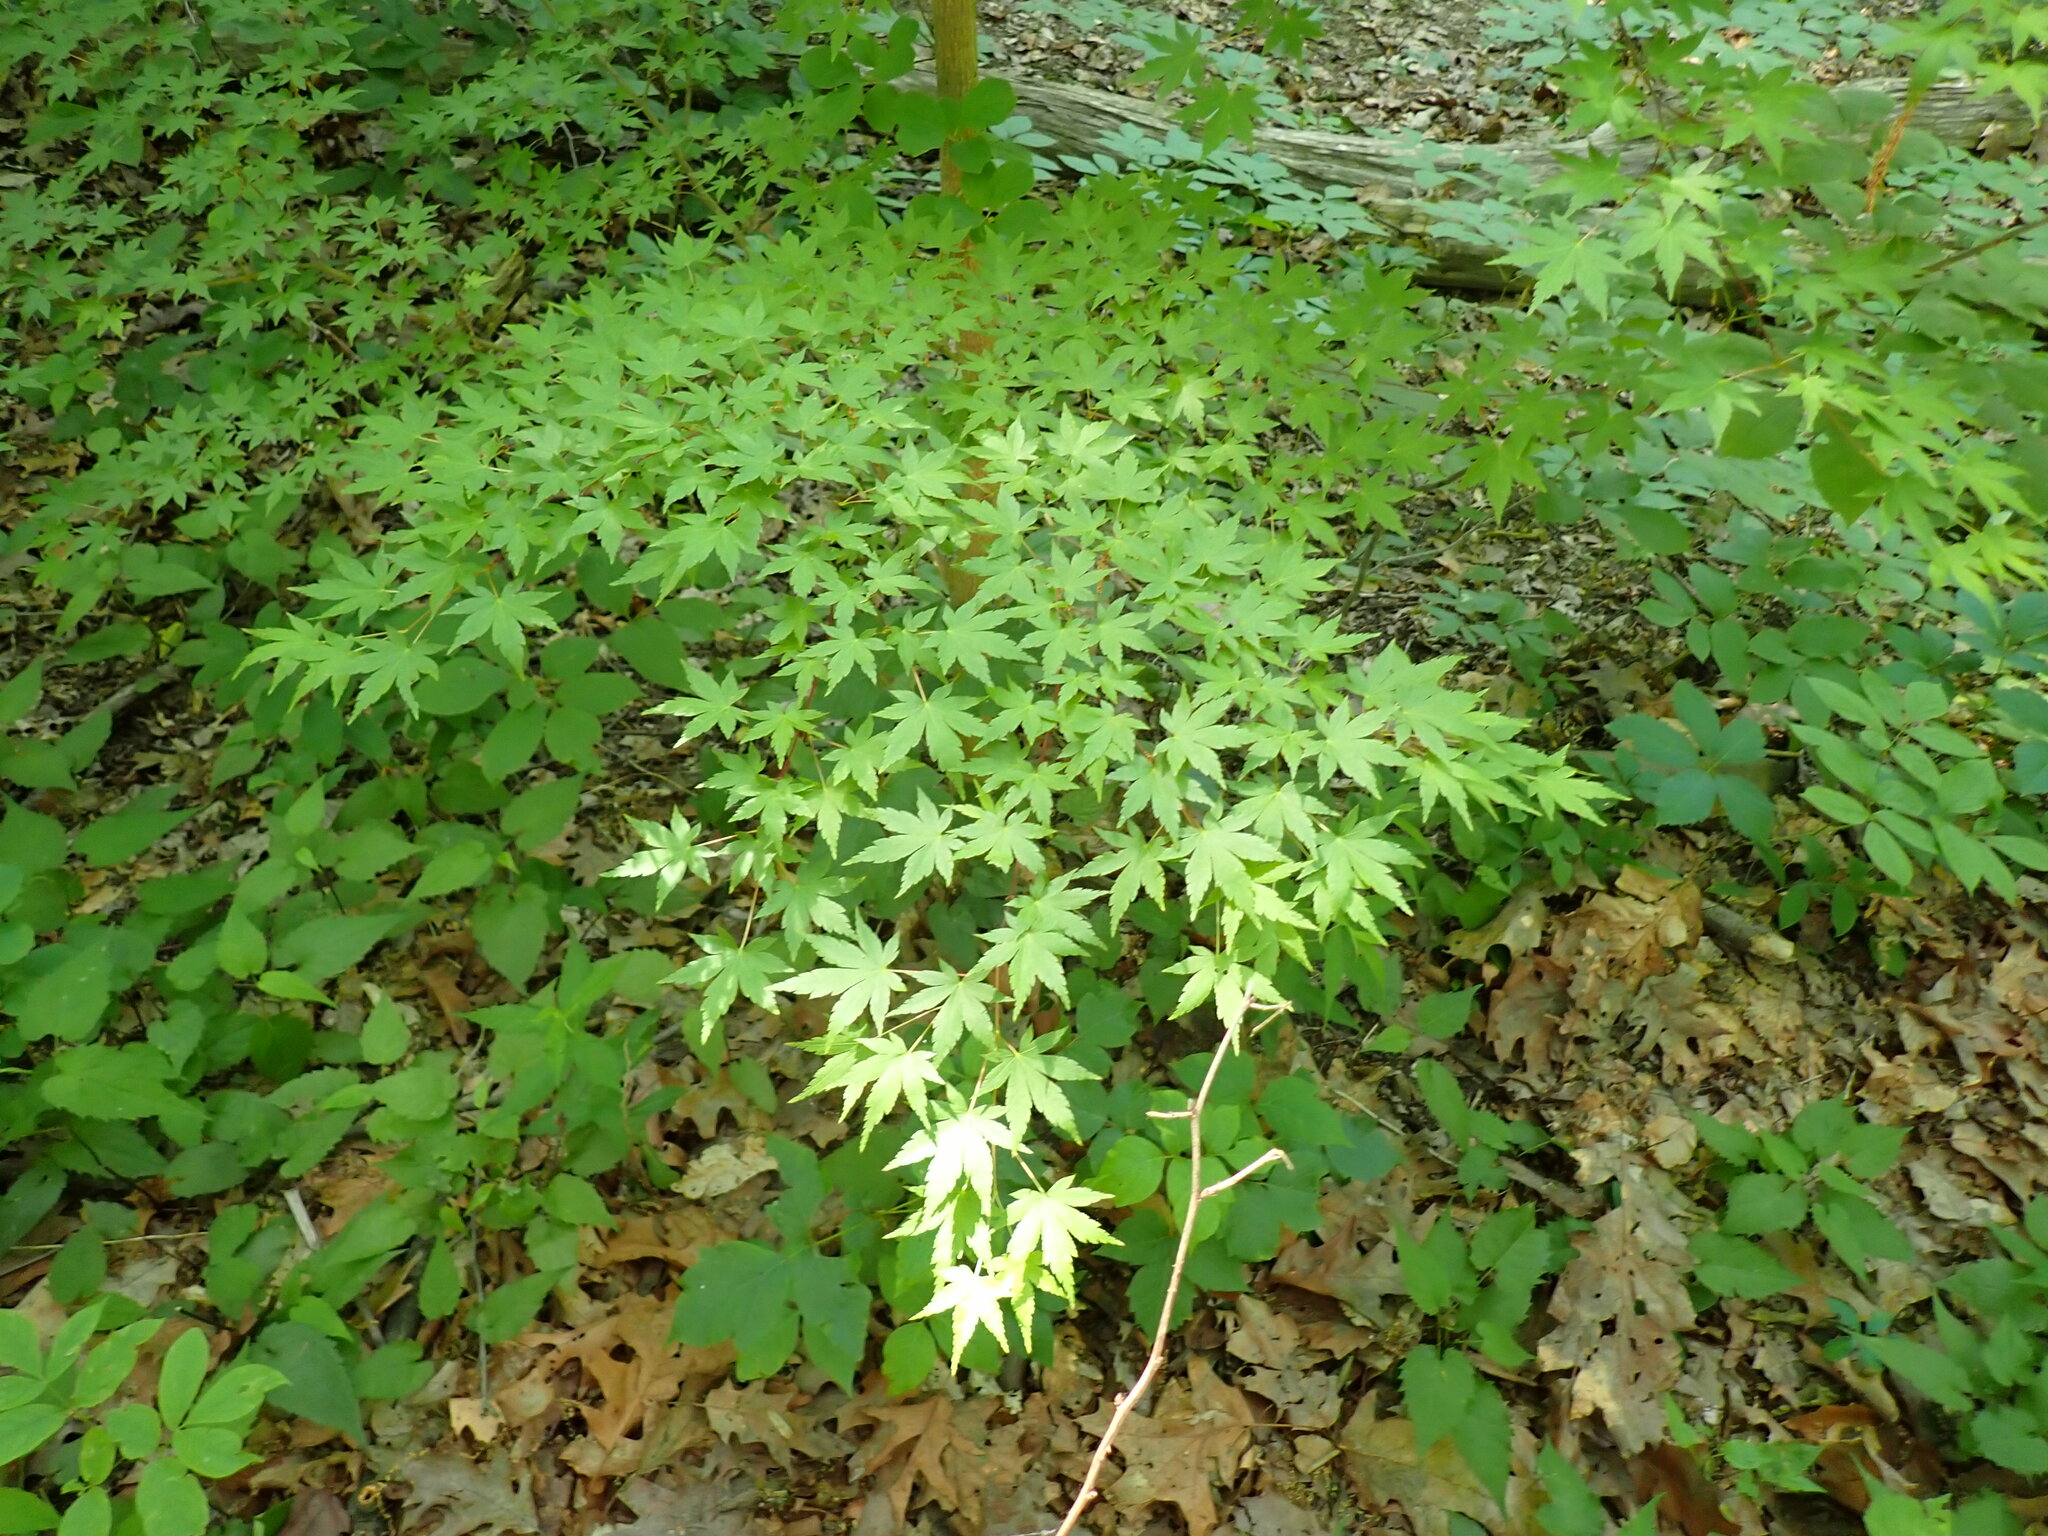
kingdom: Plantae
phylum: Tracheophyta
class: Magnoliopsida
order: Sapindales
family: Sapindaceae
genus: Acer
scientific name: Acer palmatum
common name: Japanese maple
